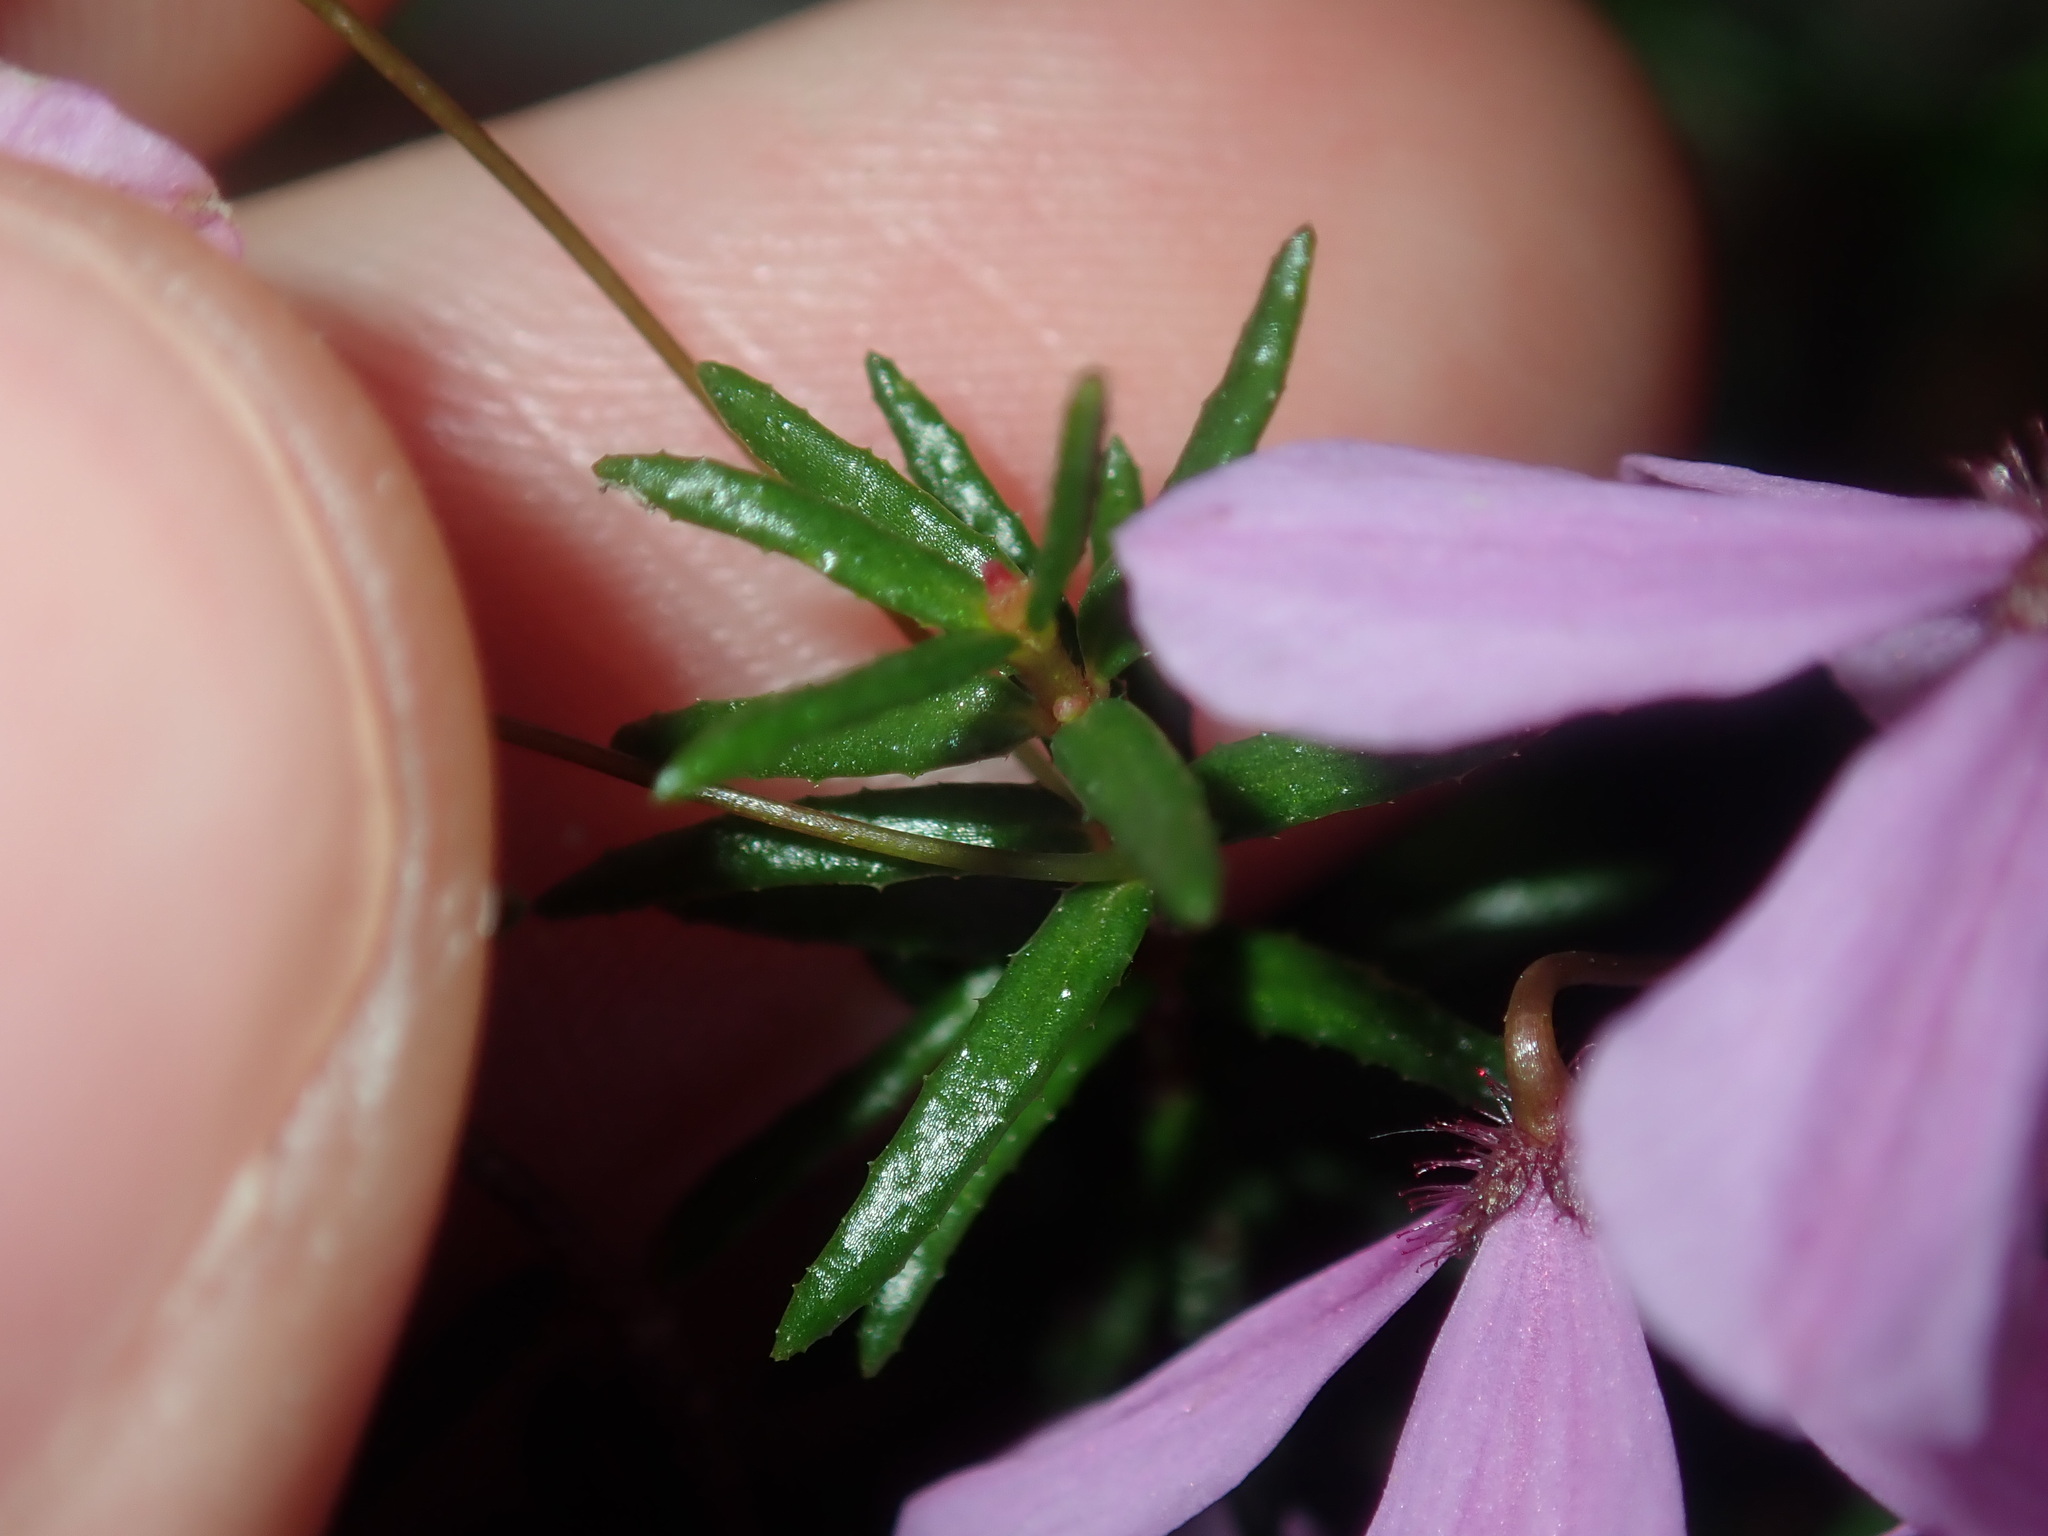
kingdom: Plantae
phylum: Tracheophyta
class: Magnoliopsida
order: Oxalidales
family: Elaeocarpaceae
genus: Tetratheca
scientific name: Tetratheca ericifolia
